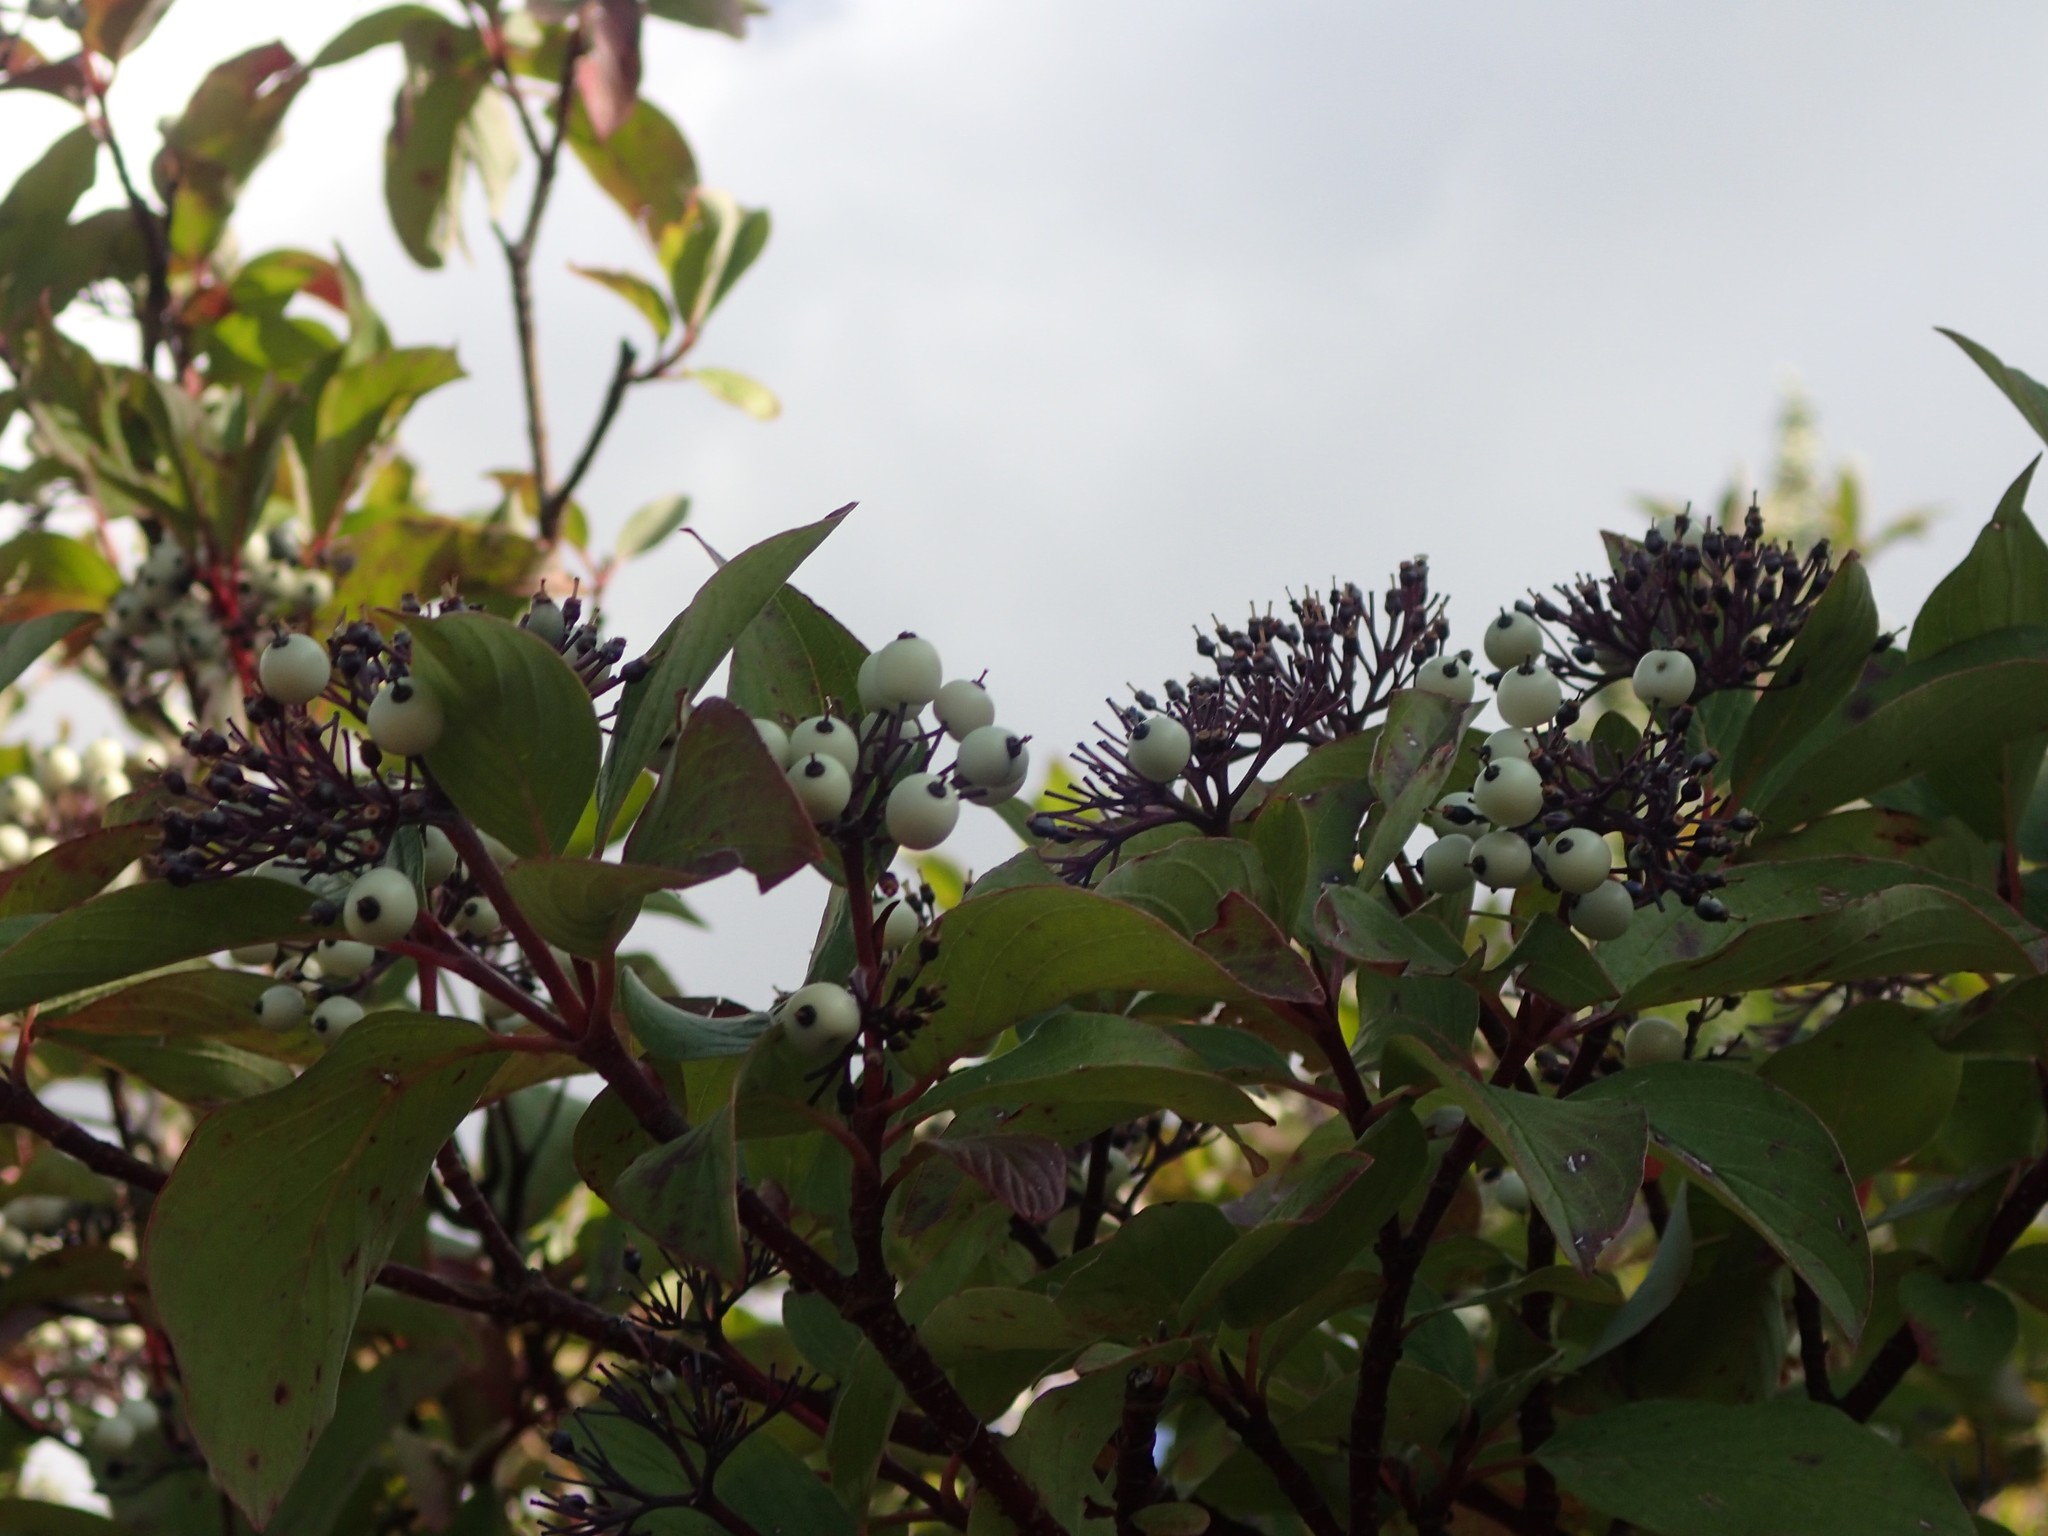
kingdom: Plantae
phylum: Tracheophyta
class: Magnoliopsida
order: Cornales
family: Cornaceae
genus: Cornus
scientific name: Cornus sericea
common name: Red-osier dogwood
